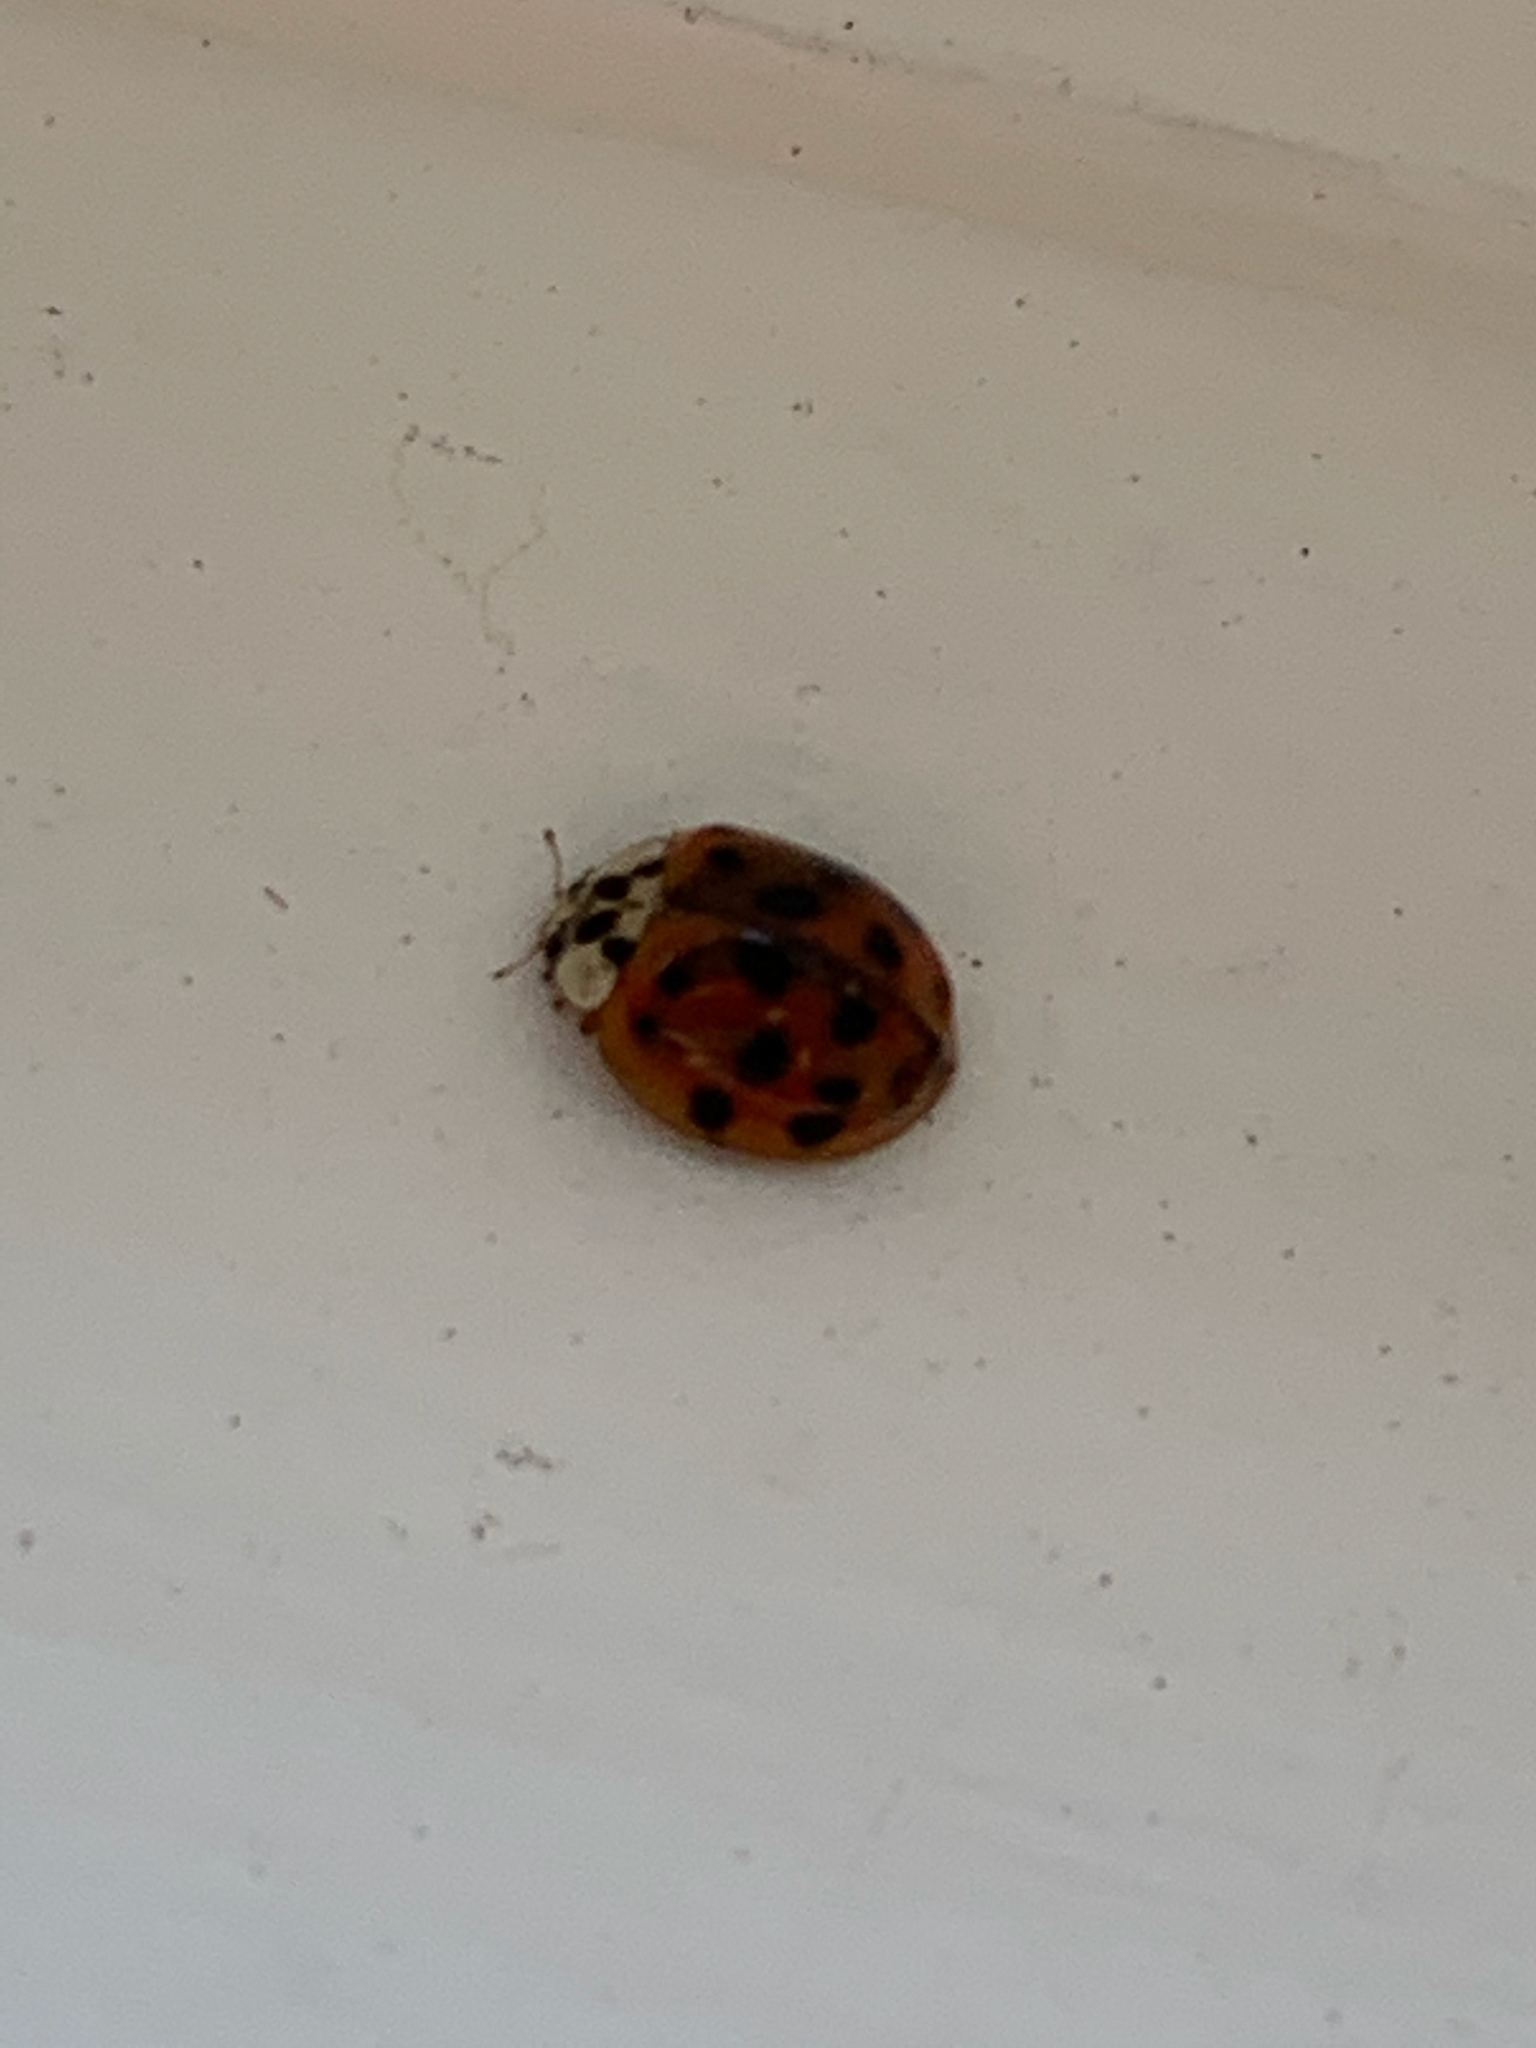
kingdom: Animalia
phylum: Arthropoda
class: Insecta
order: Coleoptera
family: Coccinellidae
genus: Harmonia
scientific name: Harmonia axyridis
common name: Harlequin ladybird
